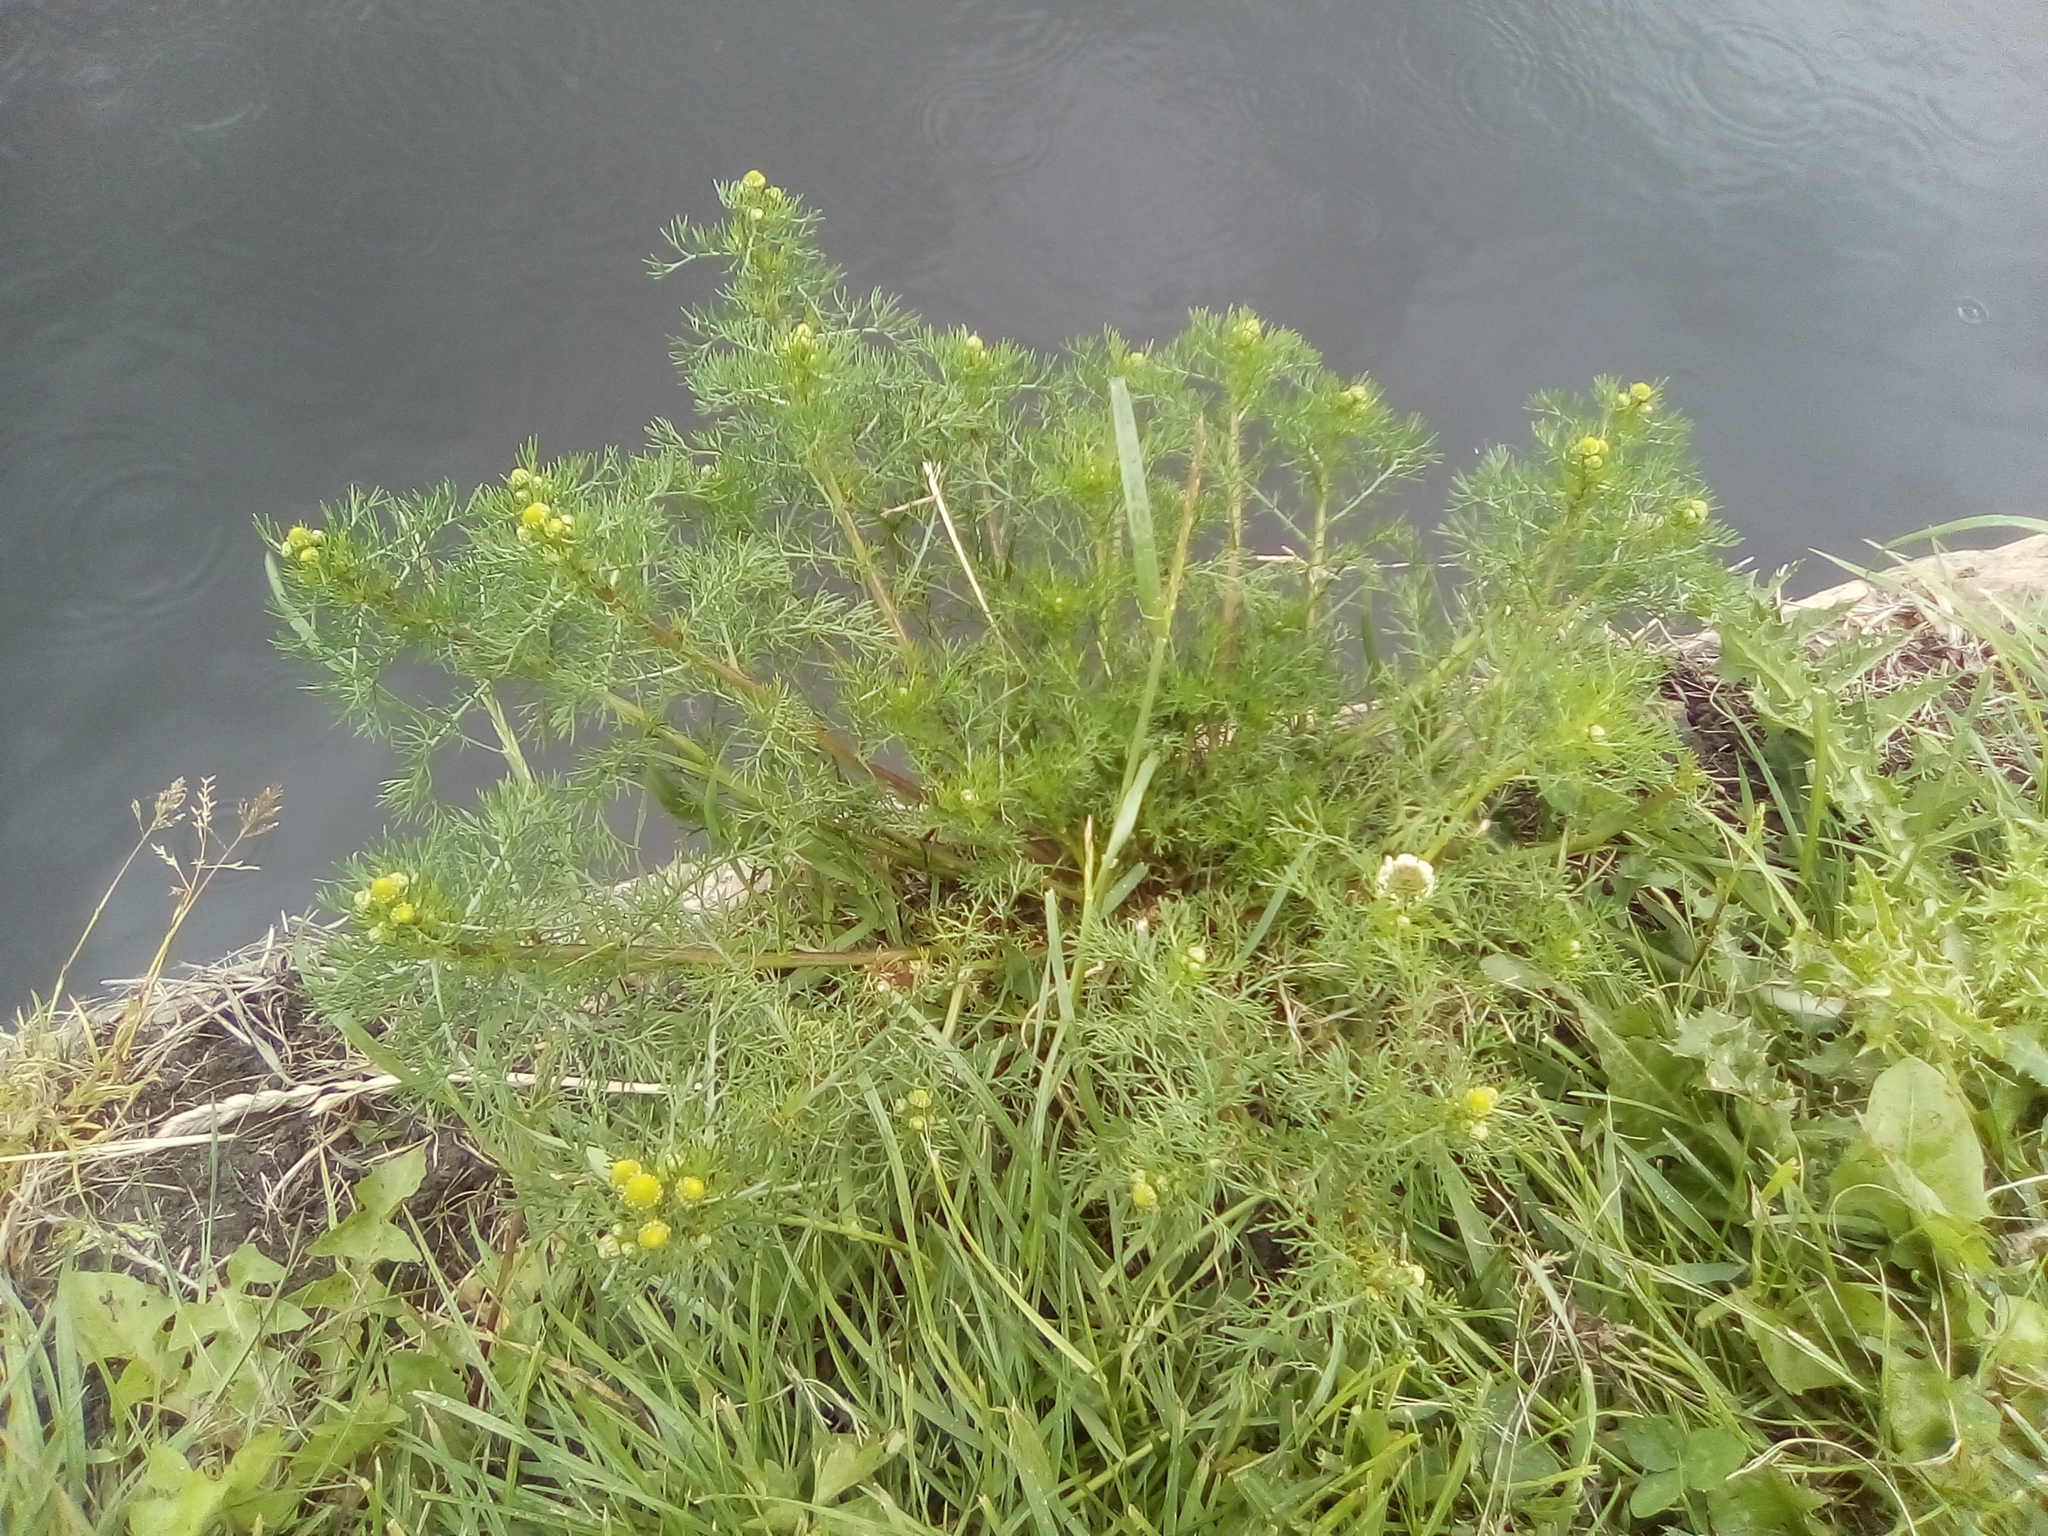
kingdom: Plantae
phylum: Tracheophyta
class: Magnoliopsida
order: Asterales
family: Asteraceae
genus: Matricaria
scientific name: Matricaria discoidea
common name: Disc mayweed
